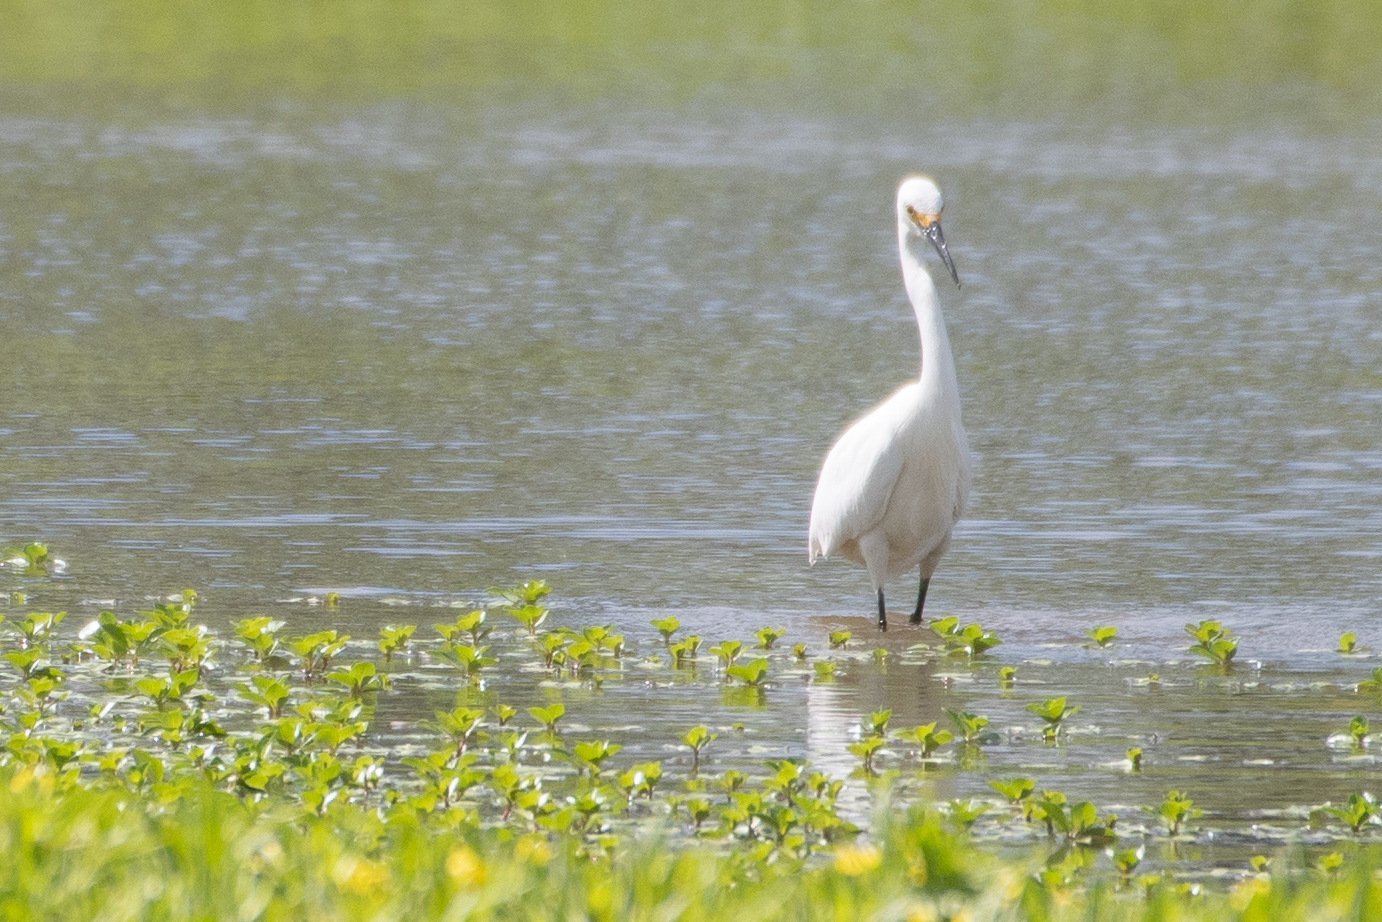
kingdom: Animalia
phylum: Chordata
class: Aves
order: Pelecaniformes
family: Ardeidae
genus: Egretta
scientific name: Egretta thula
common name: Snowy egret
